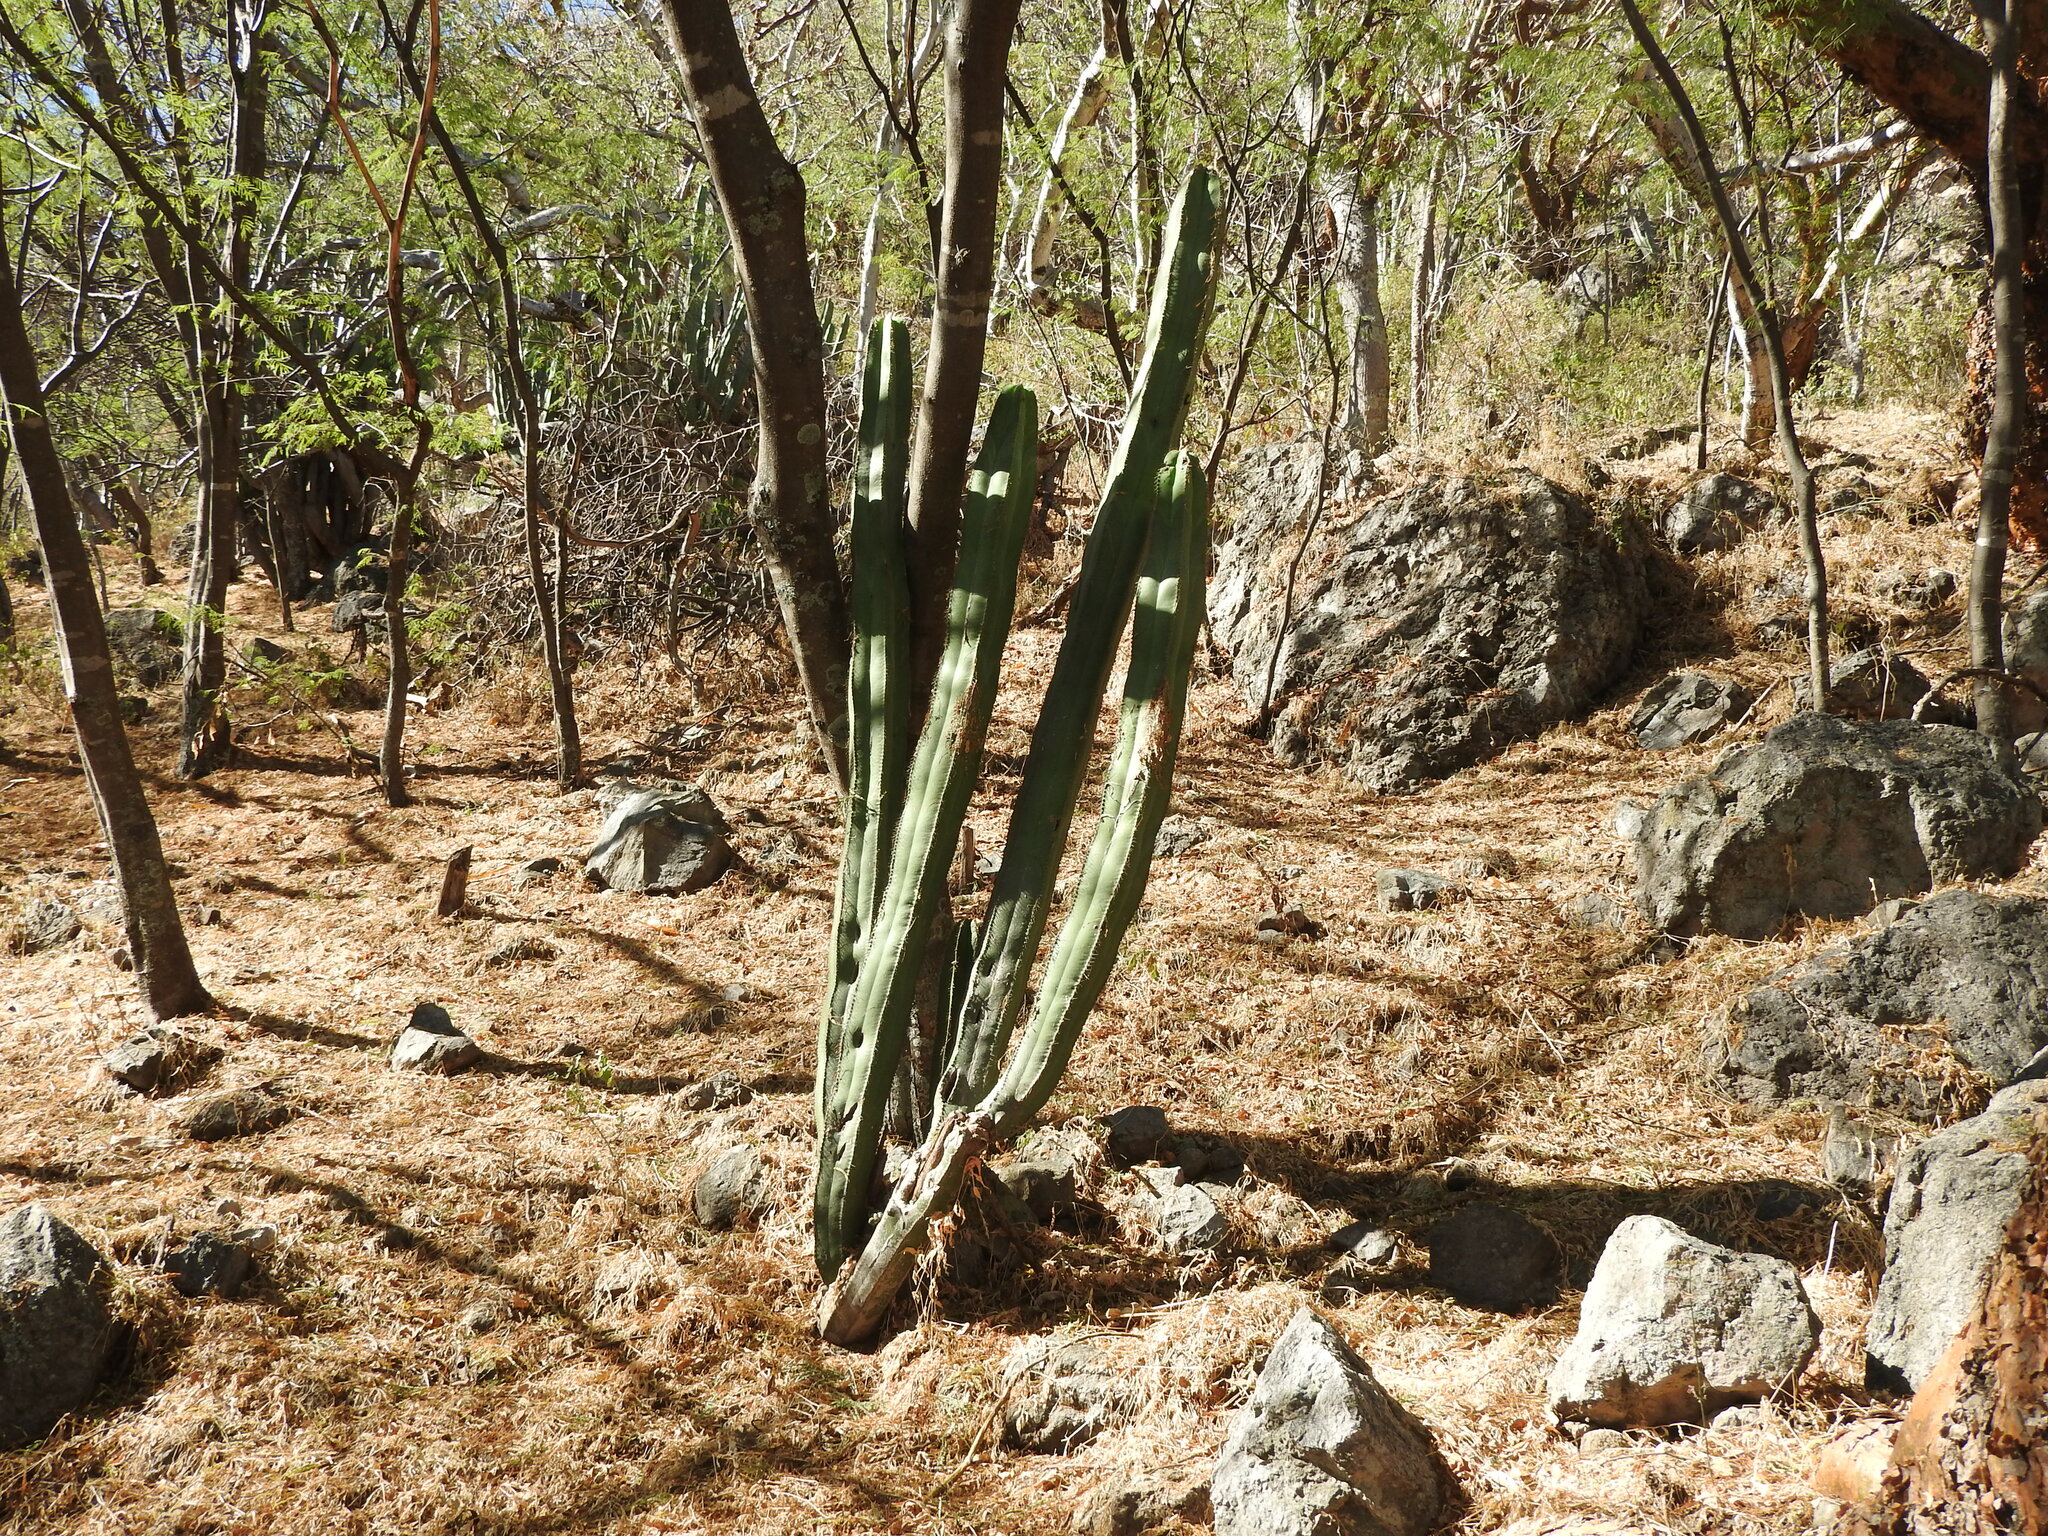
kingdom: Plantae
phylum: Tracheophyta
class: Magnoliopsida
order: Caryophyllales
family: Cactaceae
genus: Stenocereus
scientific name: Stenocereus dumortieri
